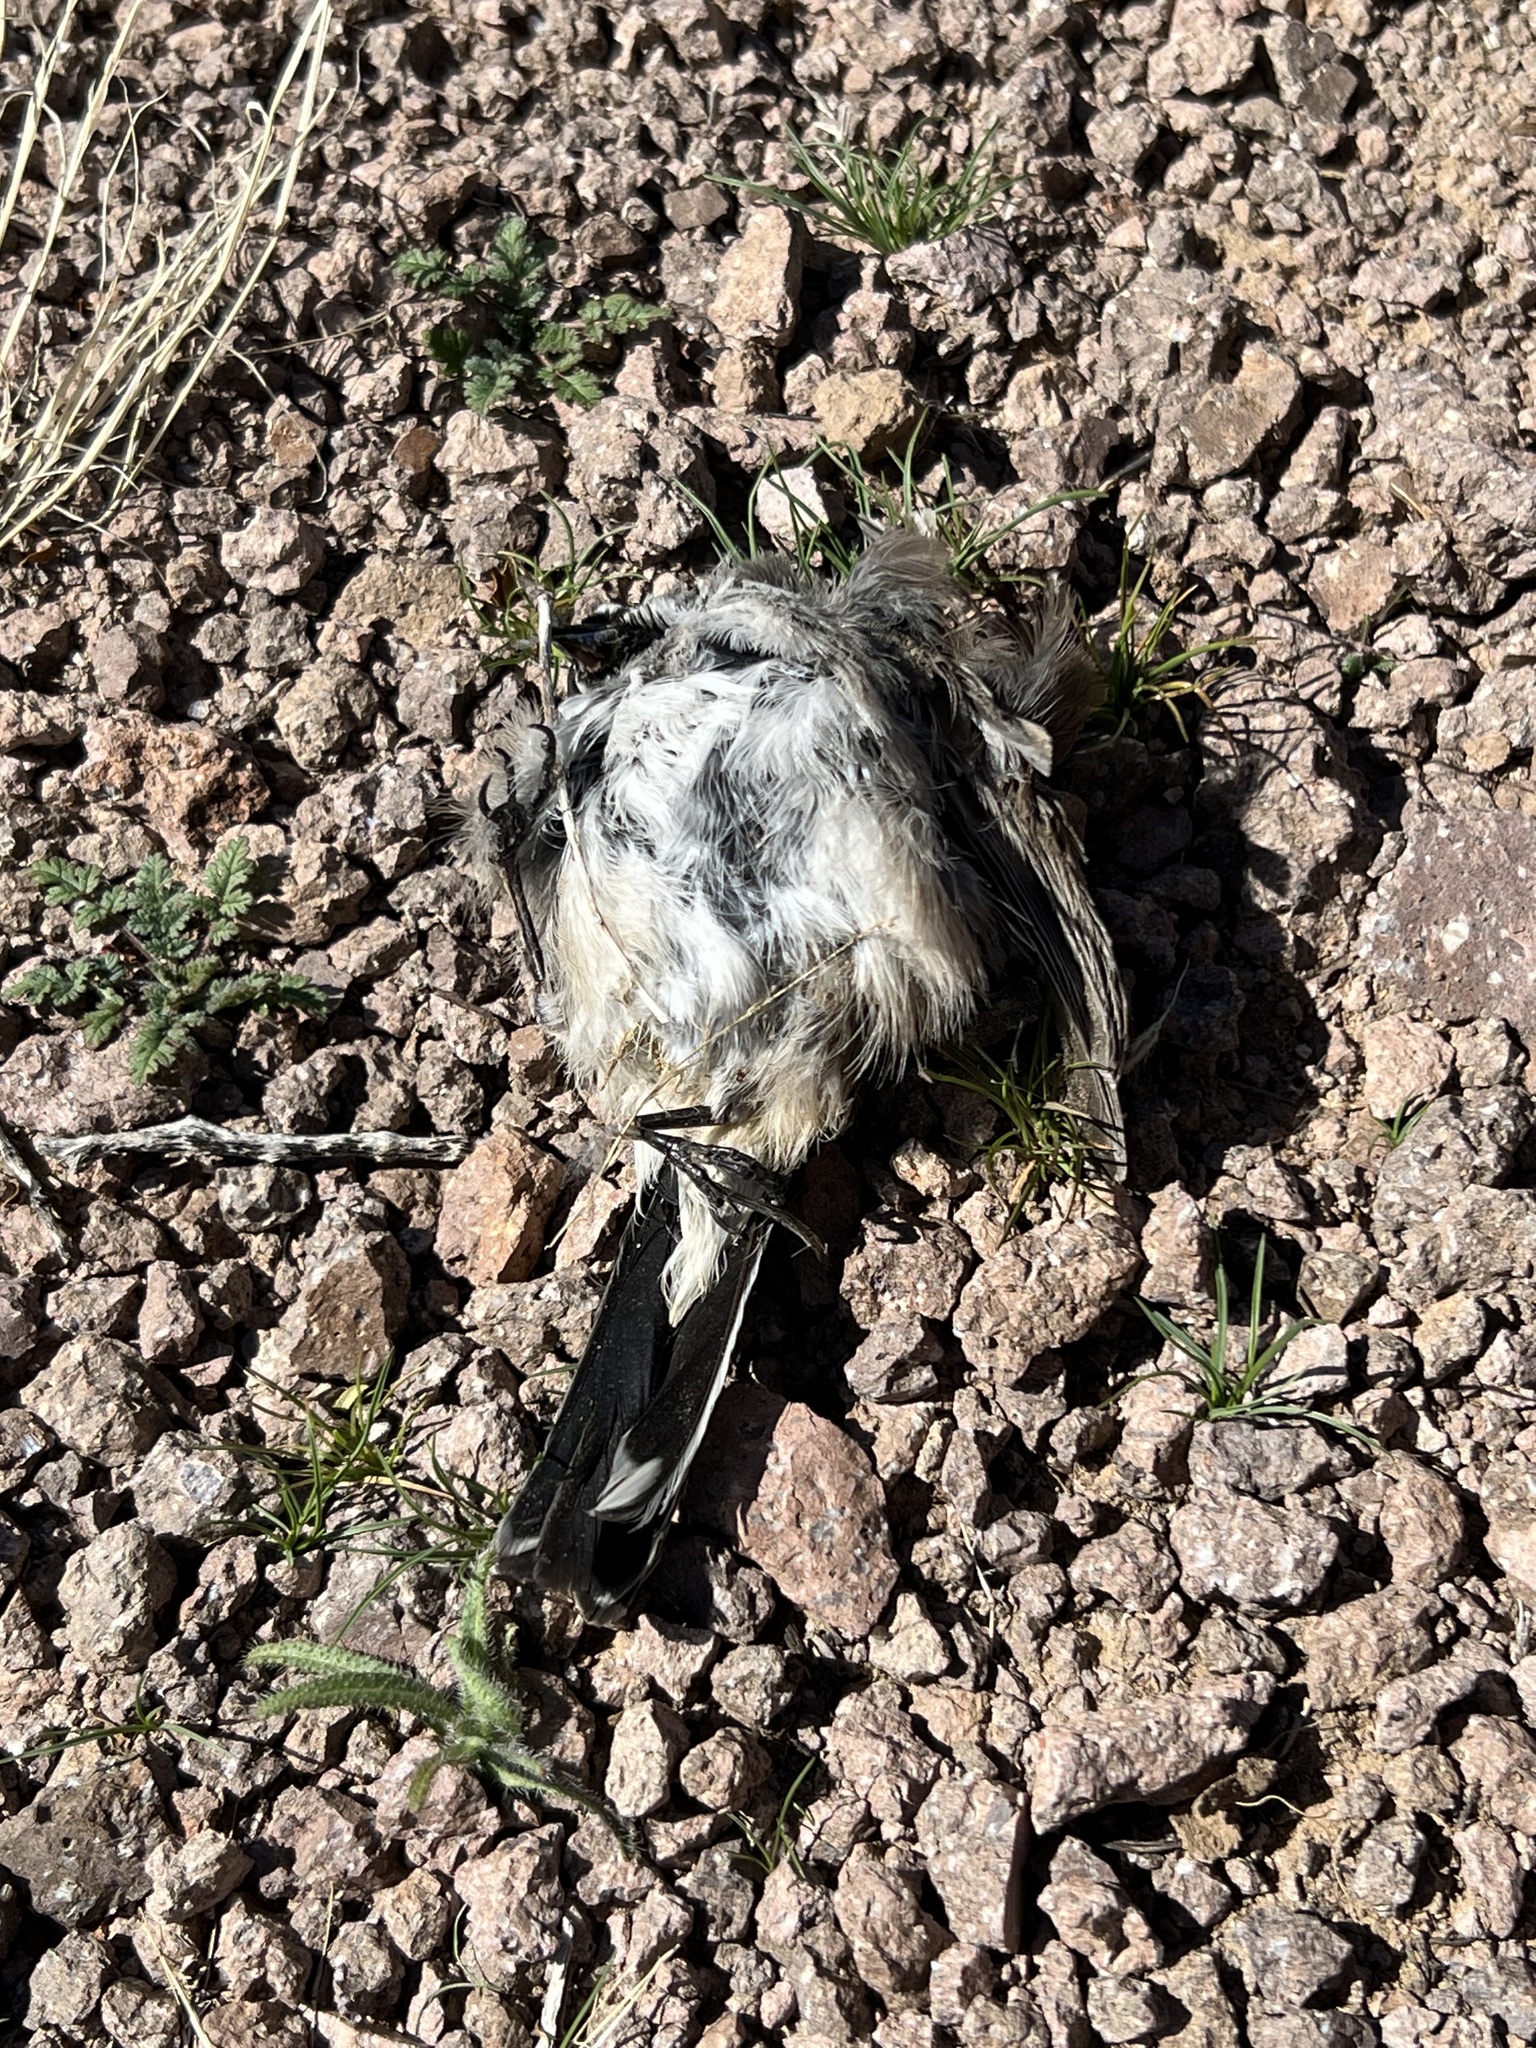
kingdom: Animalia
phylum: Chordata
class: Aves
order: Passeriformes
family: Passerellidae
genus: Amphispiza
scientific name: Amphispiza bilineata
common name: Black-throated sparrow
